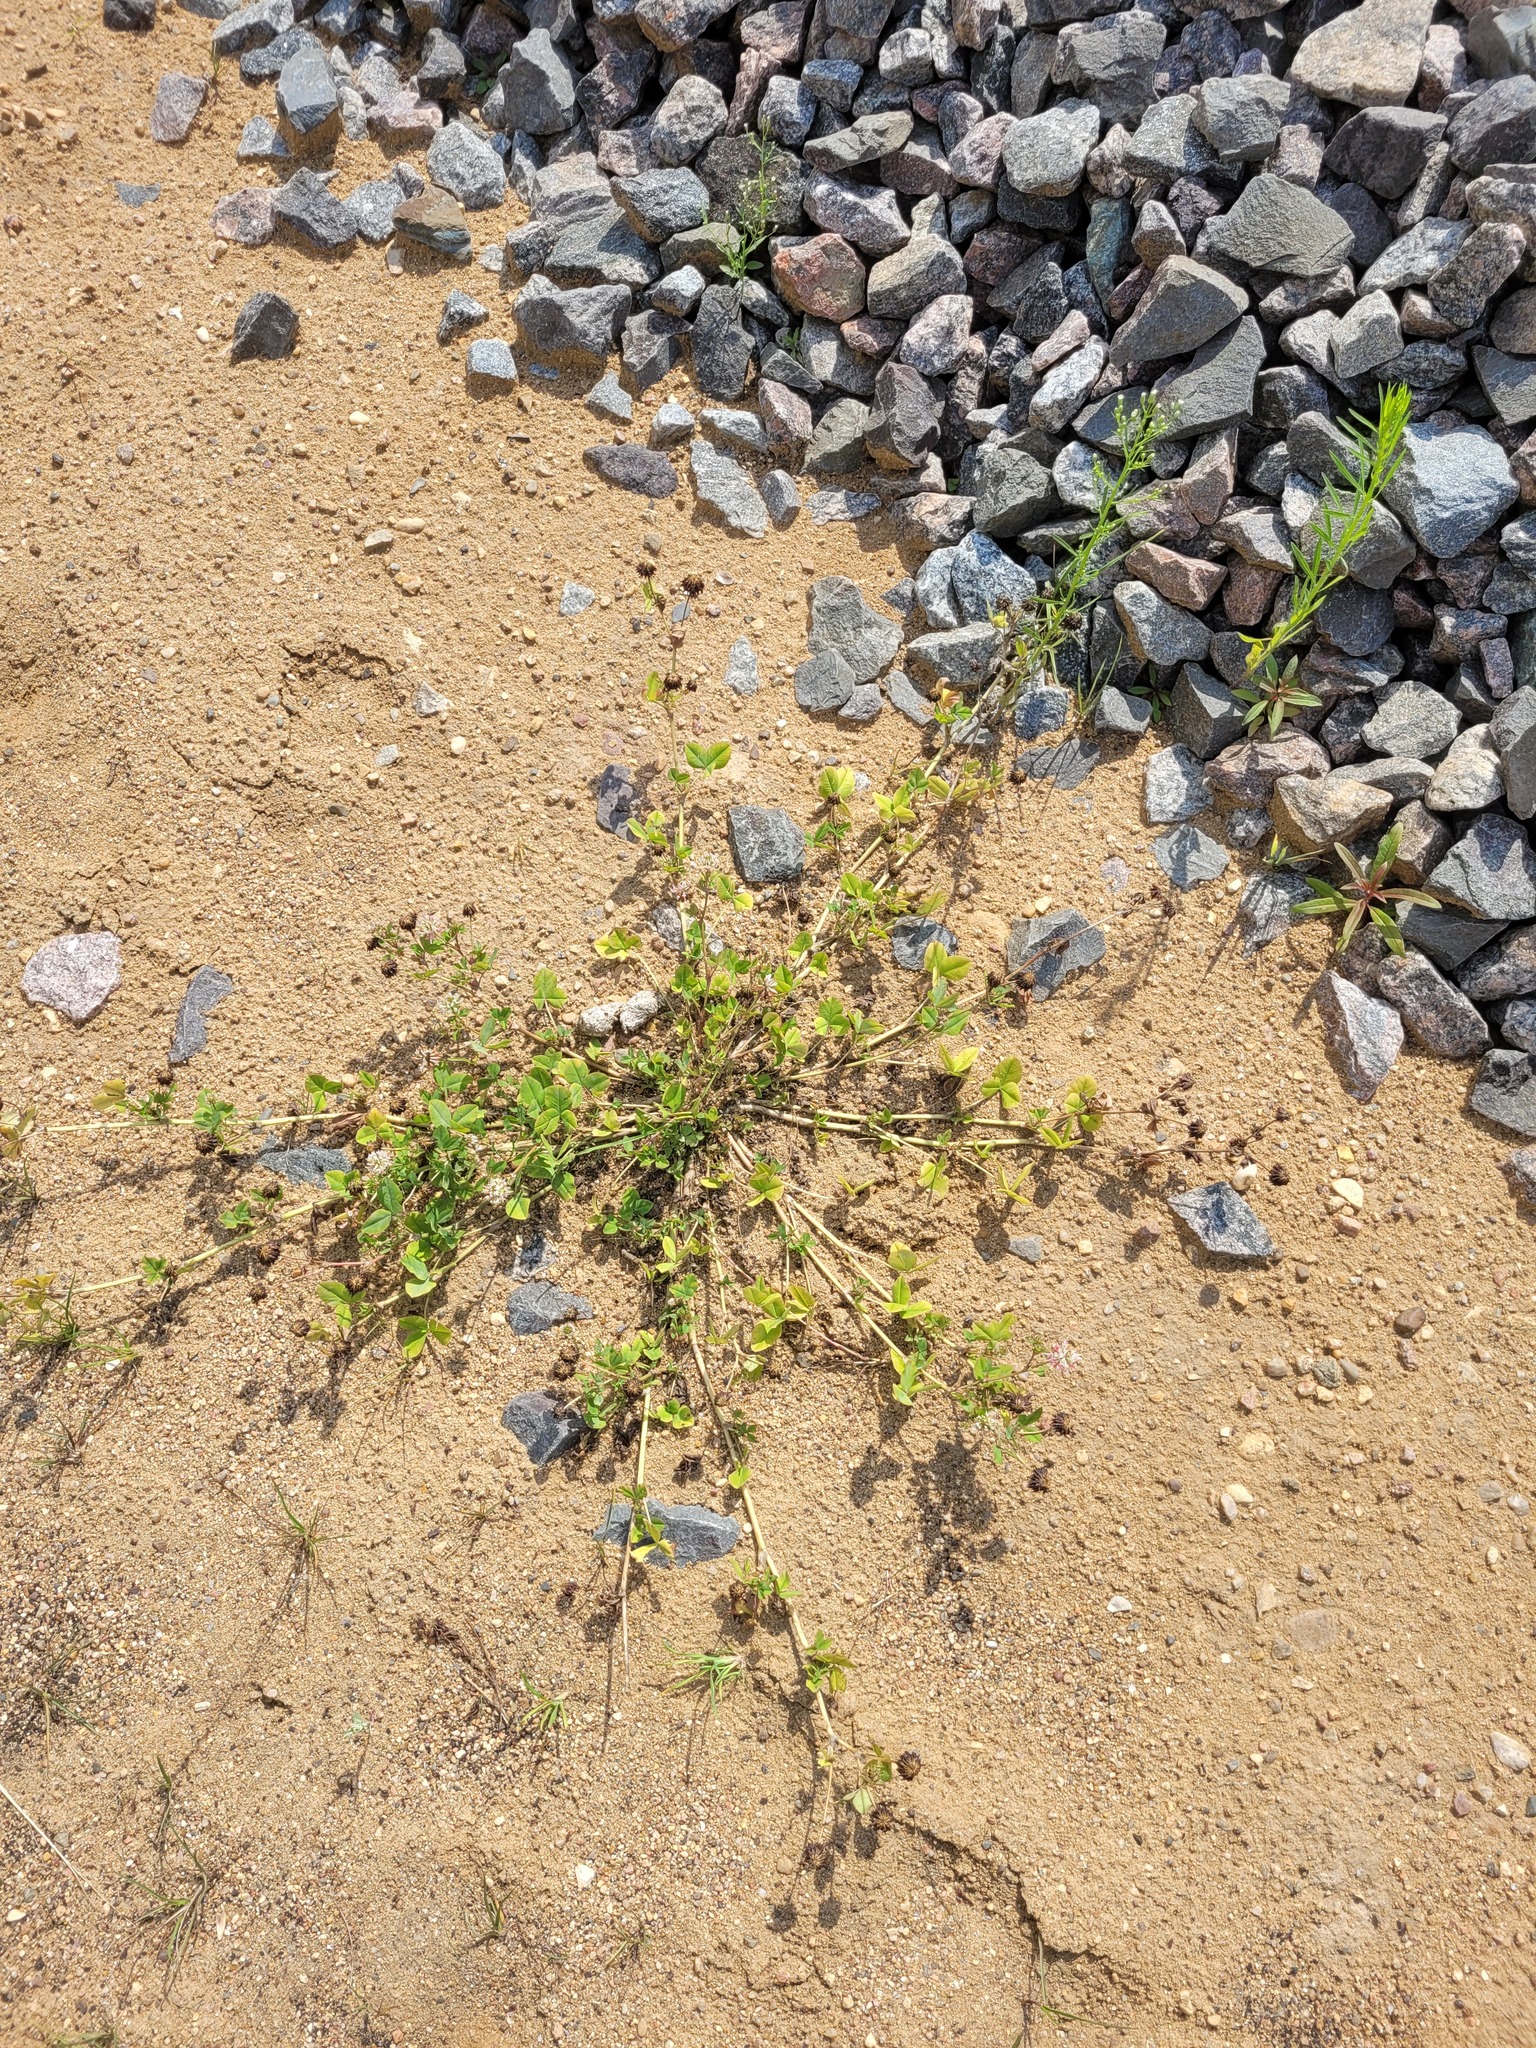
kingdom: Plantae
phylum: Tracheophyta
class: Magnoliopsida
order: Fabales
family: Fabaceae
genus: Trifolium
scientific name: Trifolium hybridum
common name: Alsike clover
